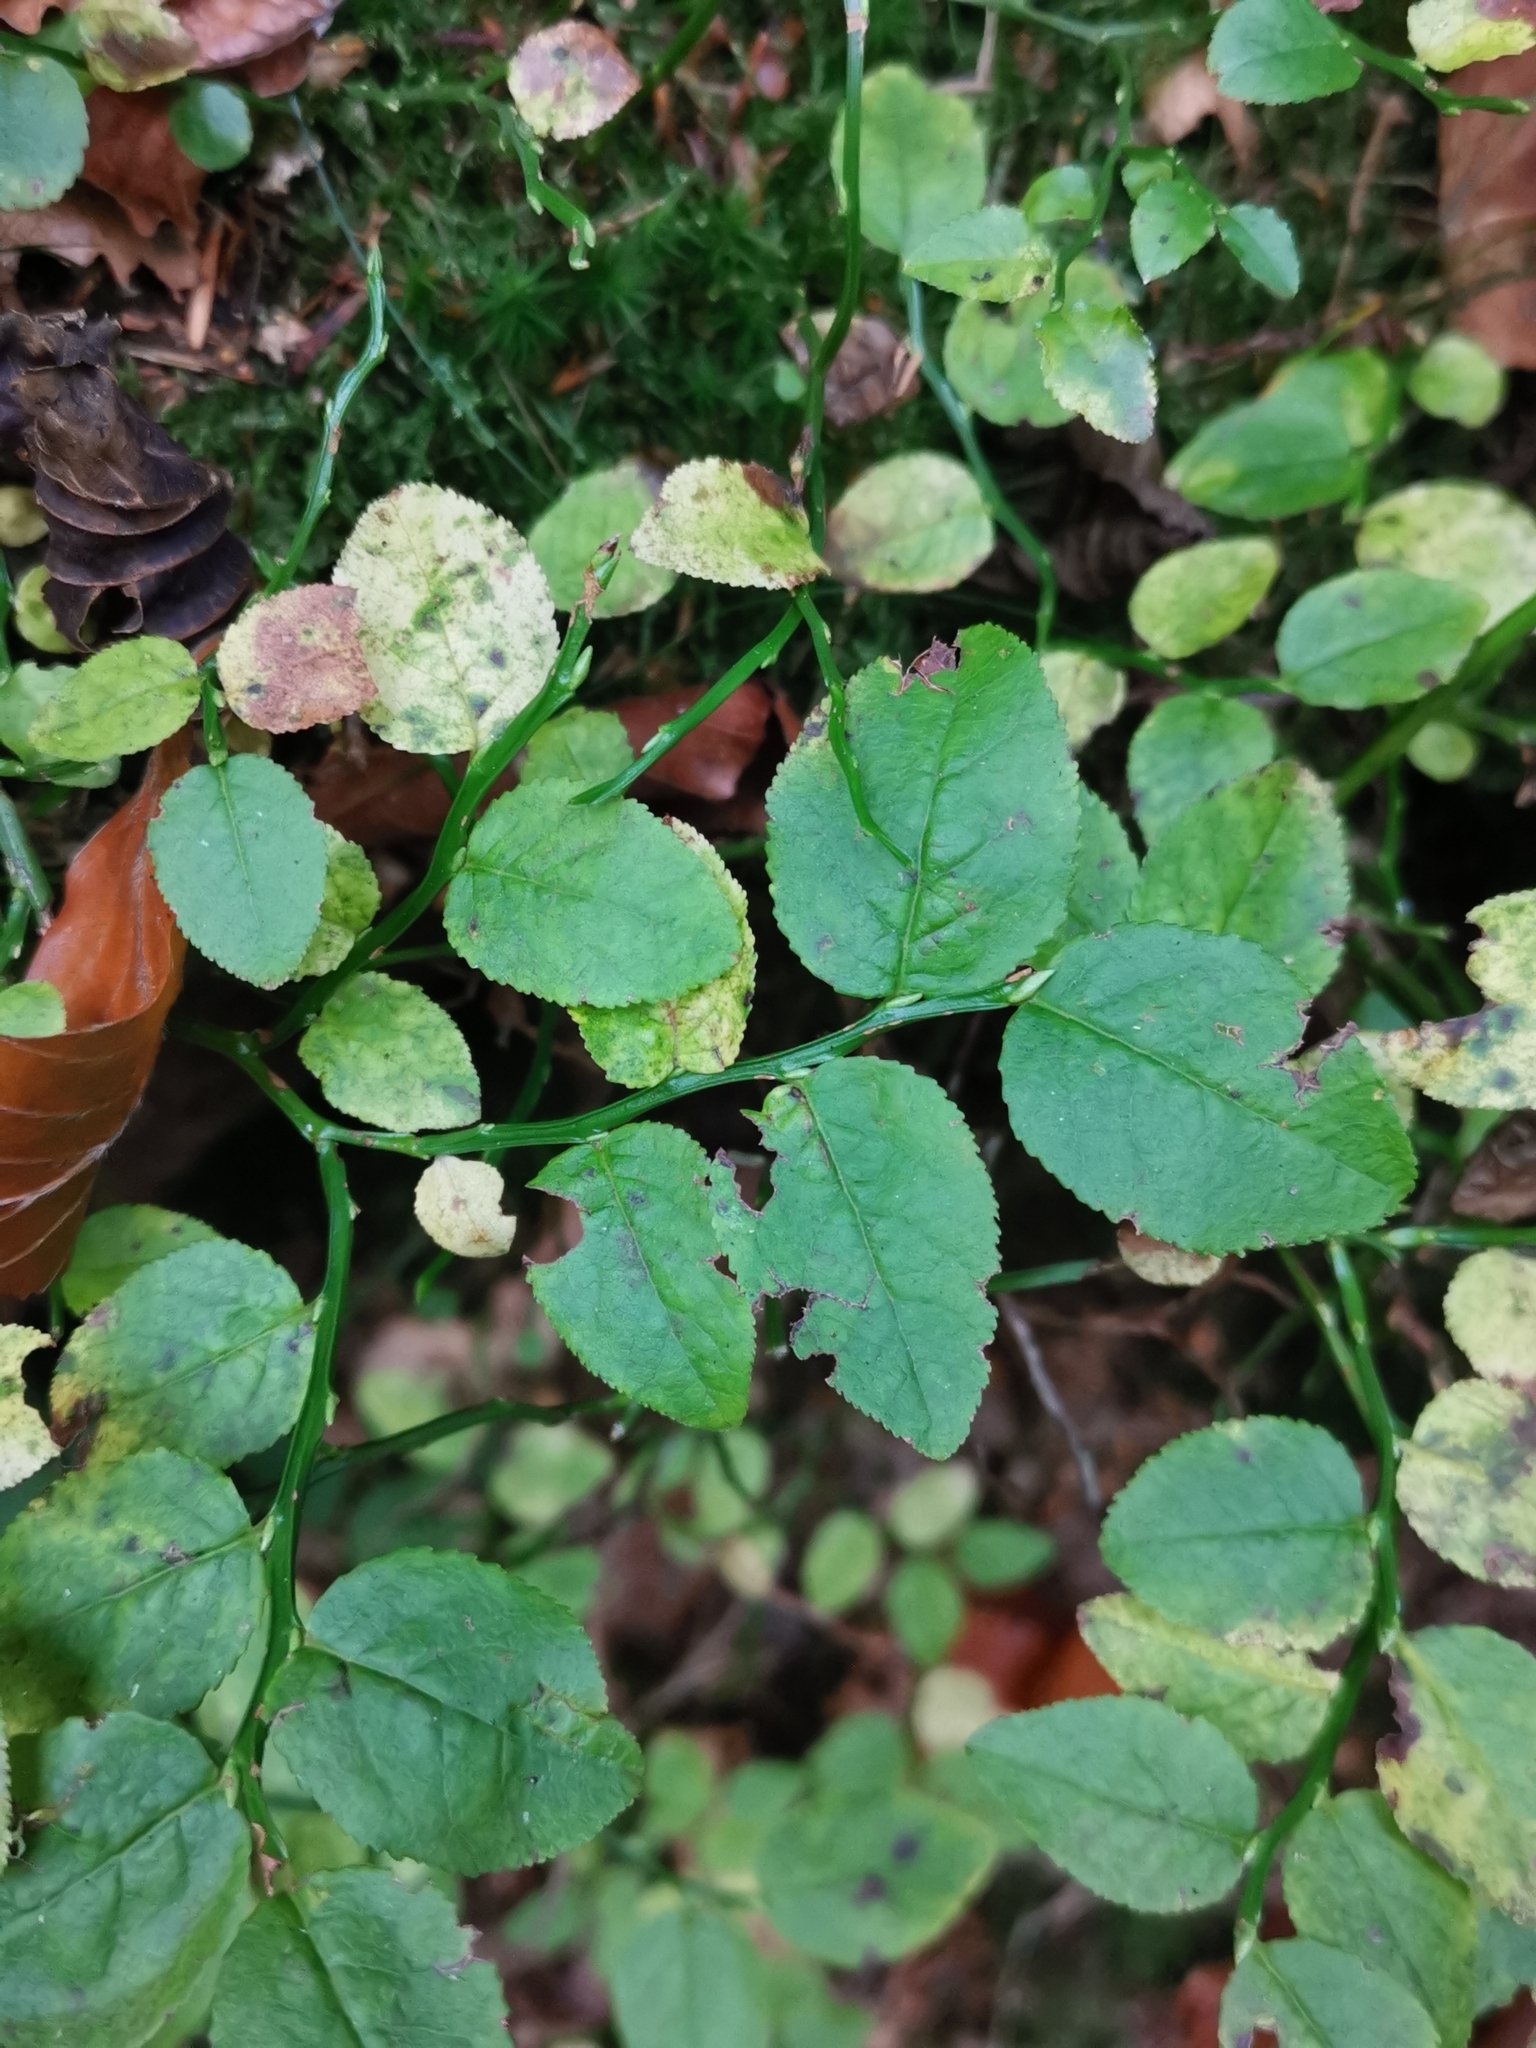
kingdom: Plantae
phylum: Tracheophyta
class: Magnoliopsida
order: Ericales
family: Ericaceae
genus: Vaccinium
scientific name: Vaccinium myrtillus
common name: Bilberry
